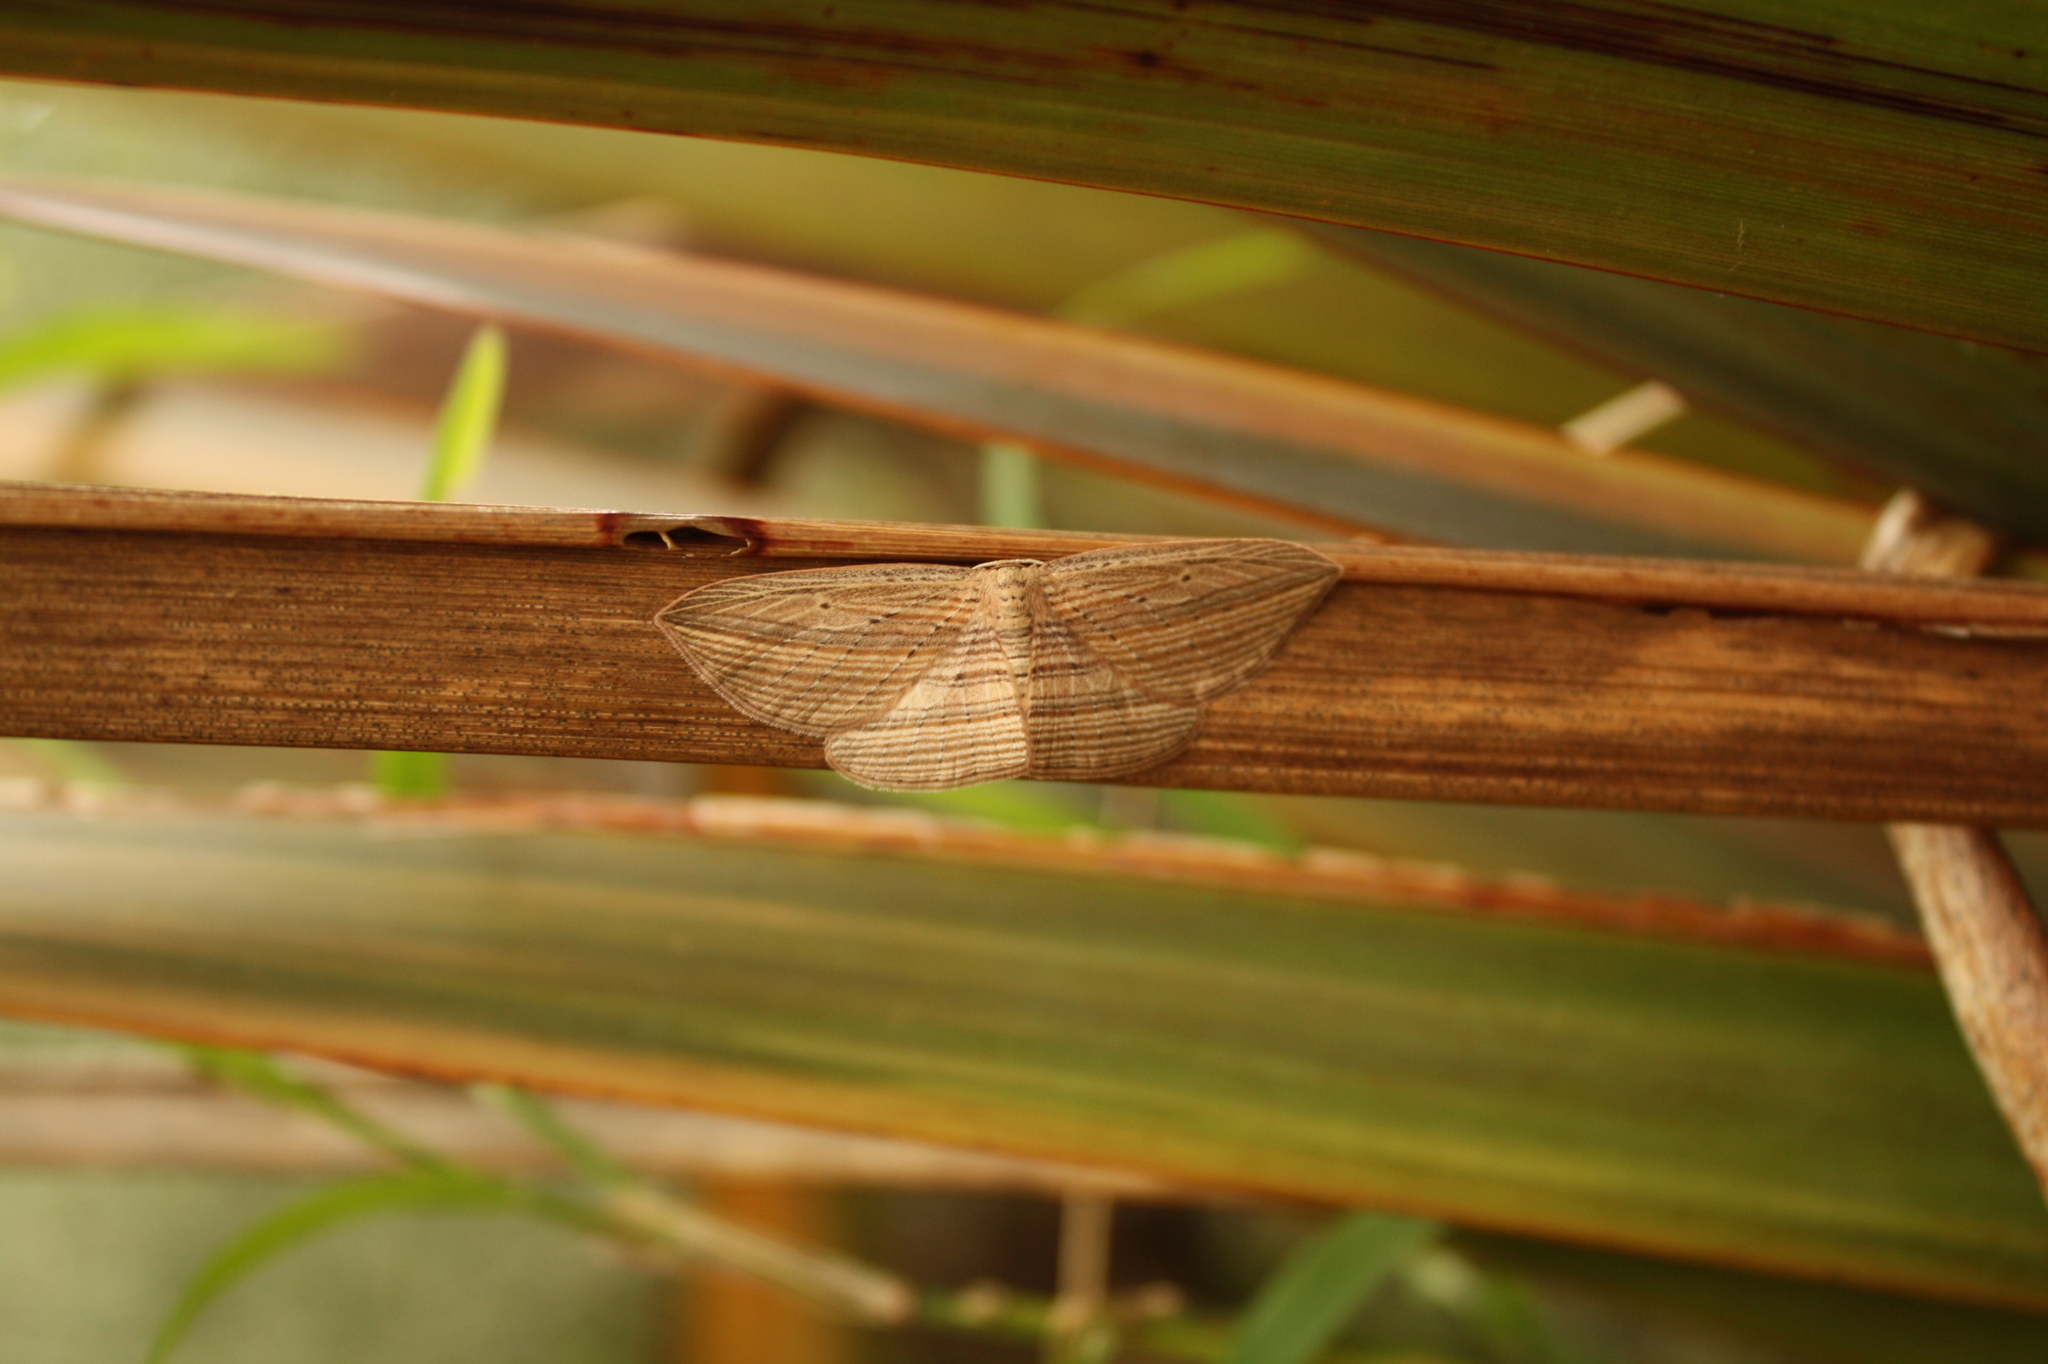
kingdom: Animalia
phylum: Arthropoda
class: Insecta
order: Lepidoptera
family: Geometridae
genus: Epiphryne
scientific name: Epiphryne verriculata
